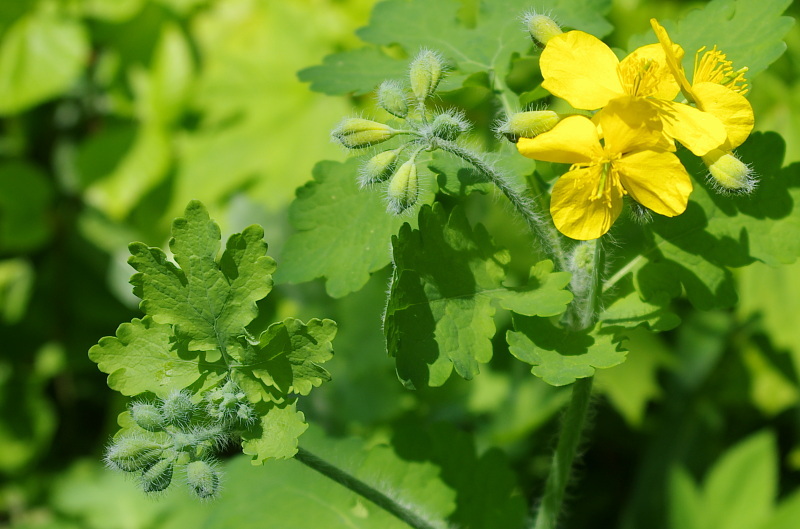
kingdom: Plantae
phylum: Tracheophyta
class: Magnoliopsida
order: Ranunculales
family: Papaveraceae
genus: Chelidonium
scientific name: Chelidonium majus
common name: Greater celandine
